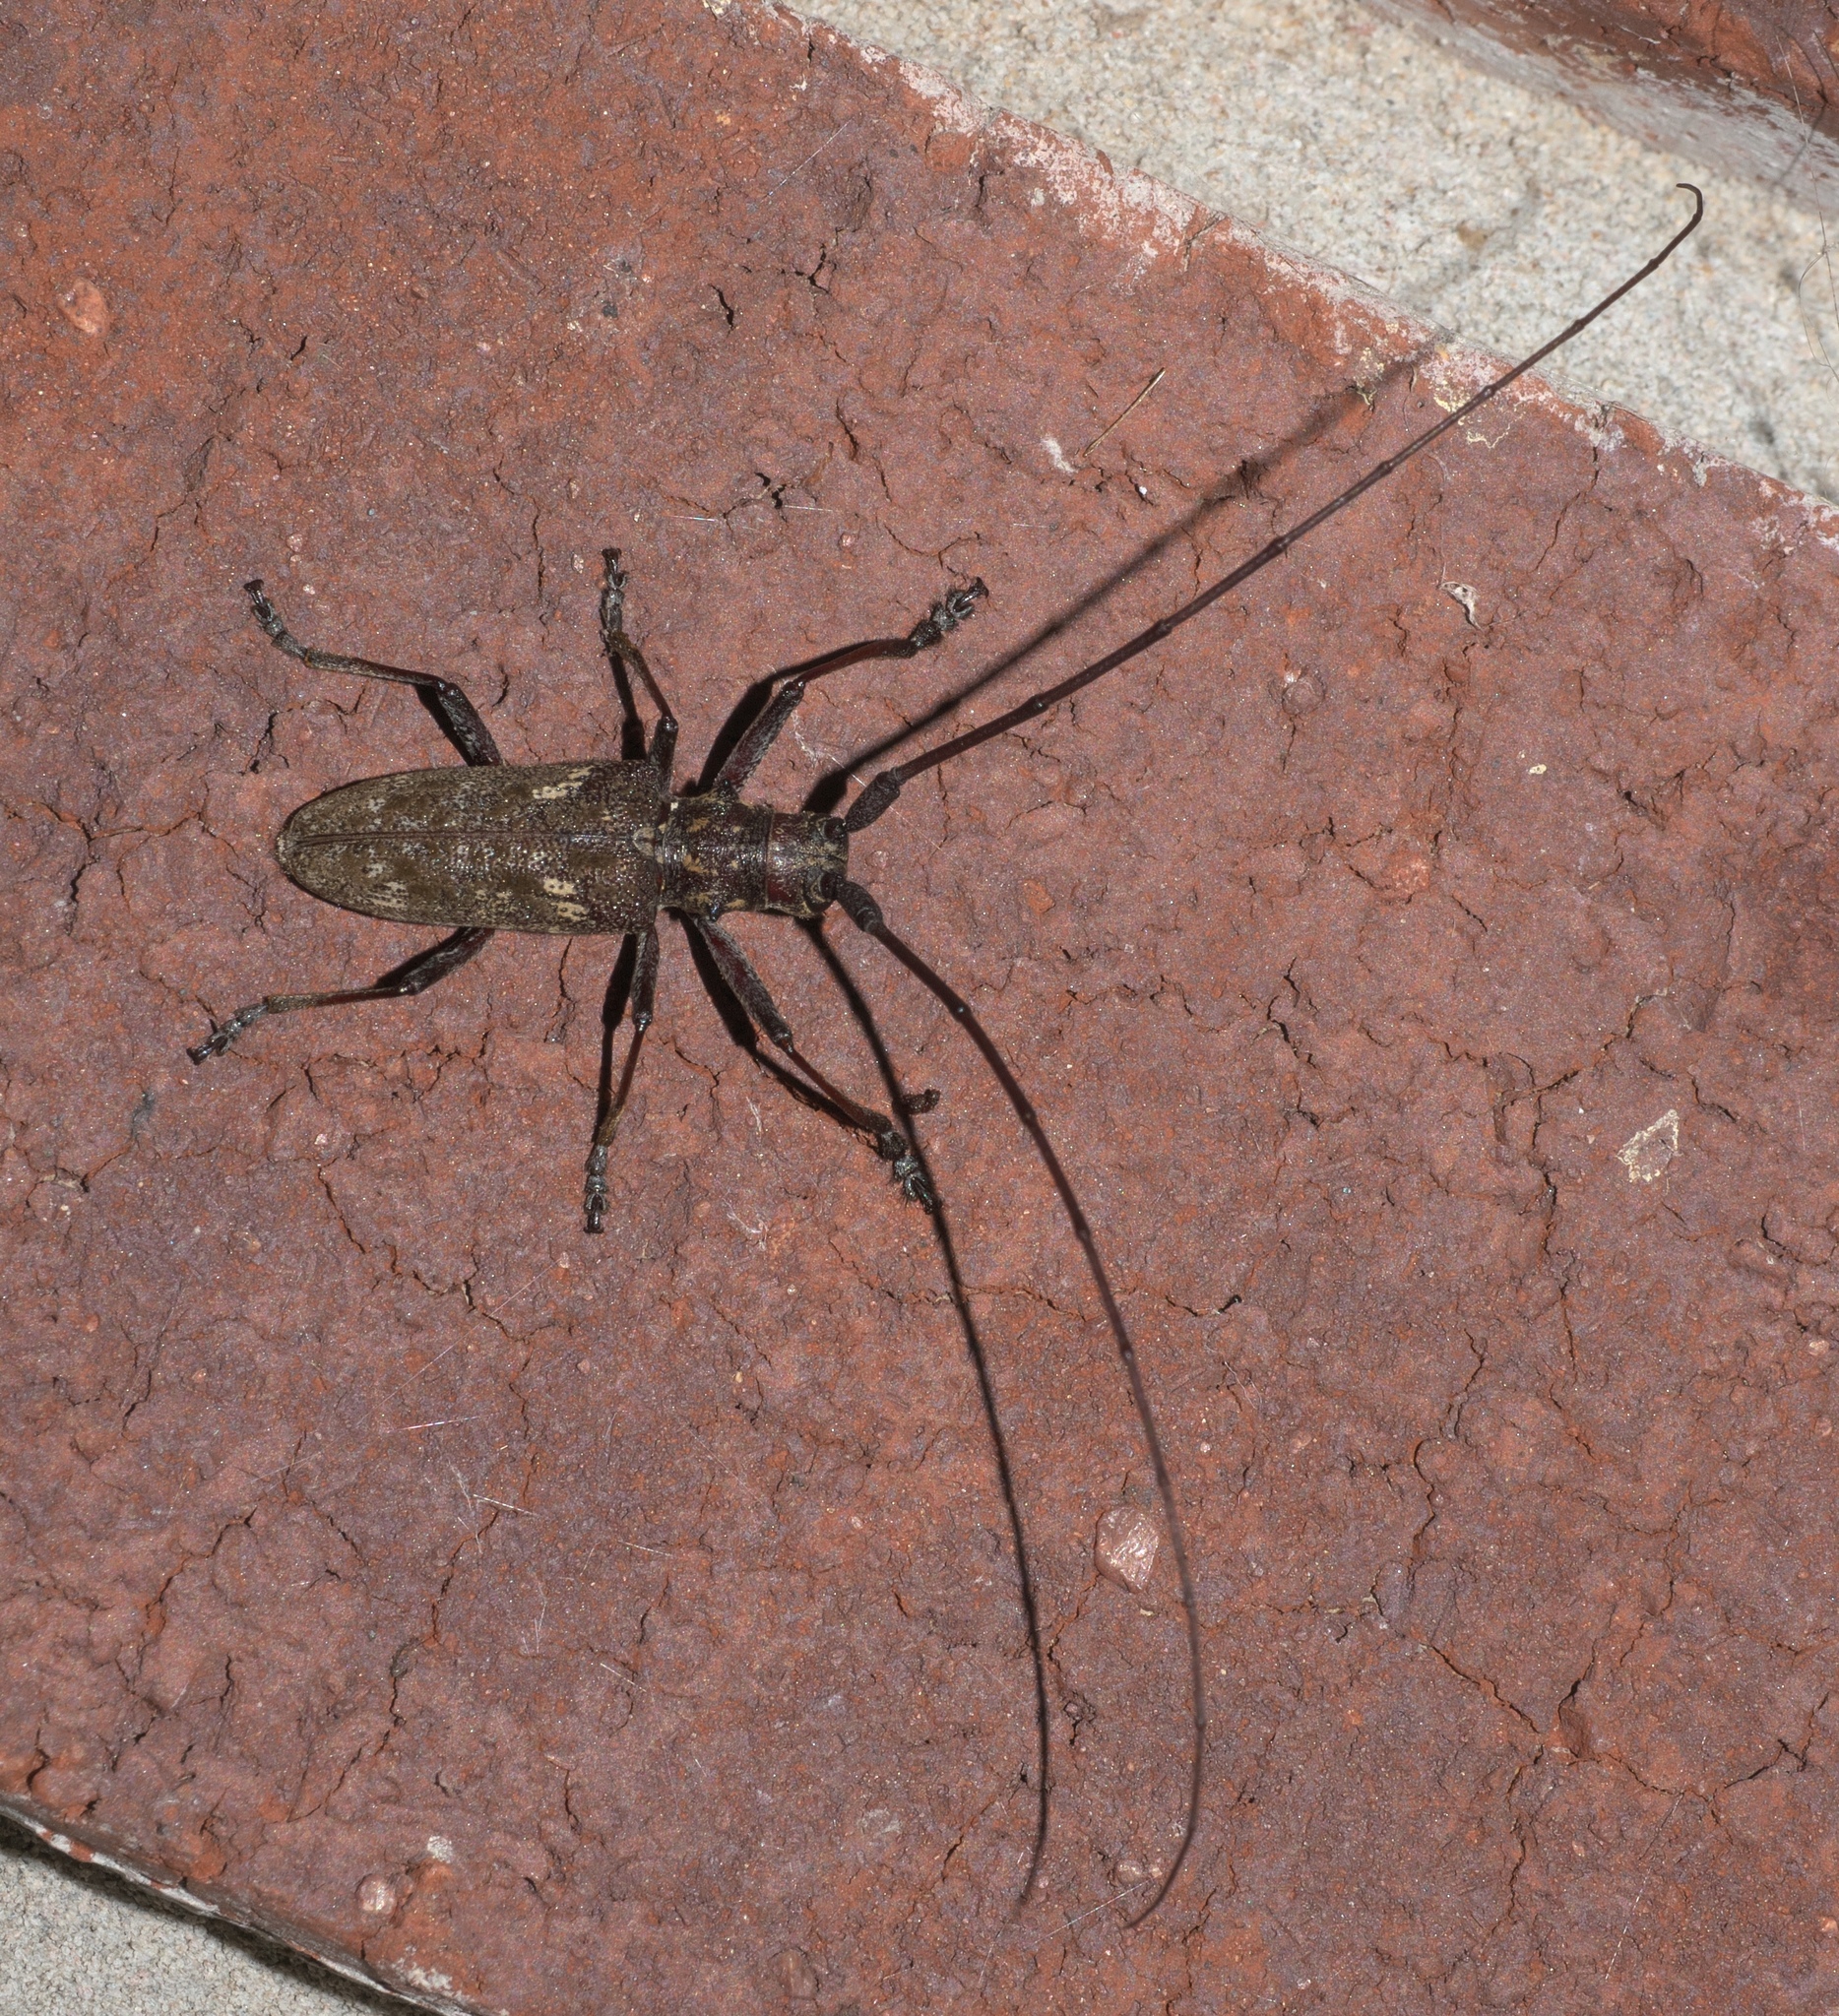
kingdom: Animalia
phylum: Arthropoda
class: Insecta
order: Coleoptera
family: Cerambycidae
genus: Monochamus
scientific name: Monochamus carolinensis
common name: Carolina pine sawyer
